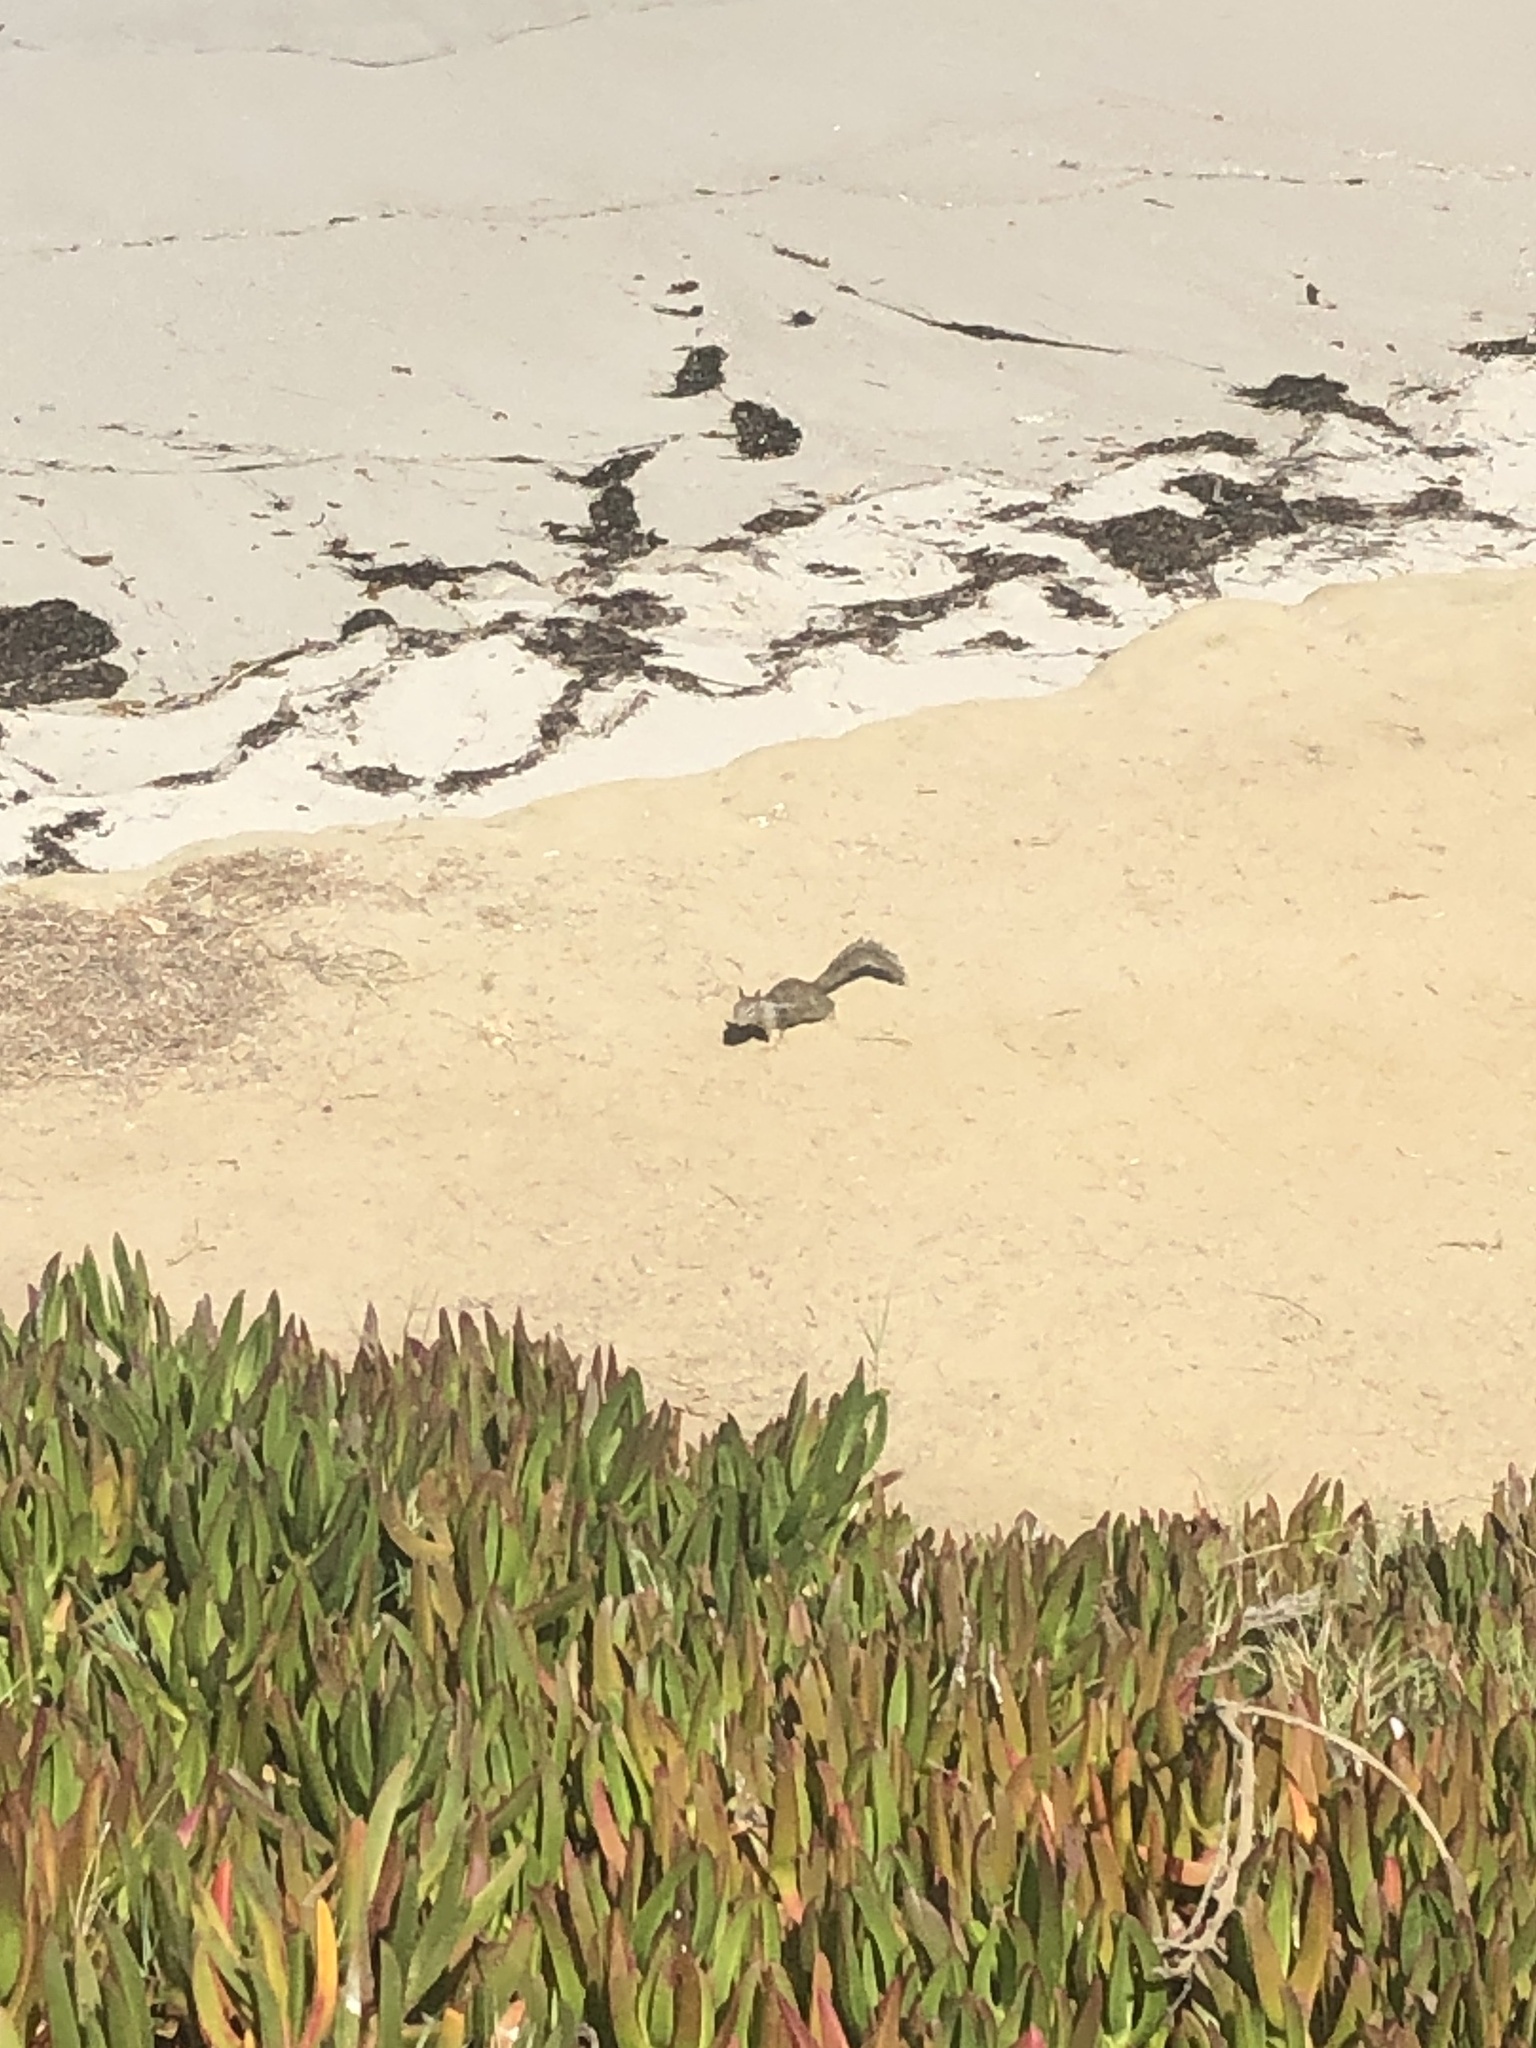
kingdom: Animalia
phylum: Chordata
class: Mammalia
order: Rodentia
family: Sciuridae
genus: Otospermophilus
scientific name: Otospermophilus beecheyi
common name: California ground squirrel
